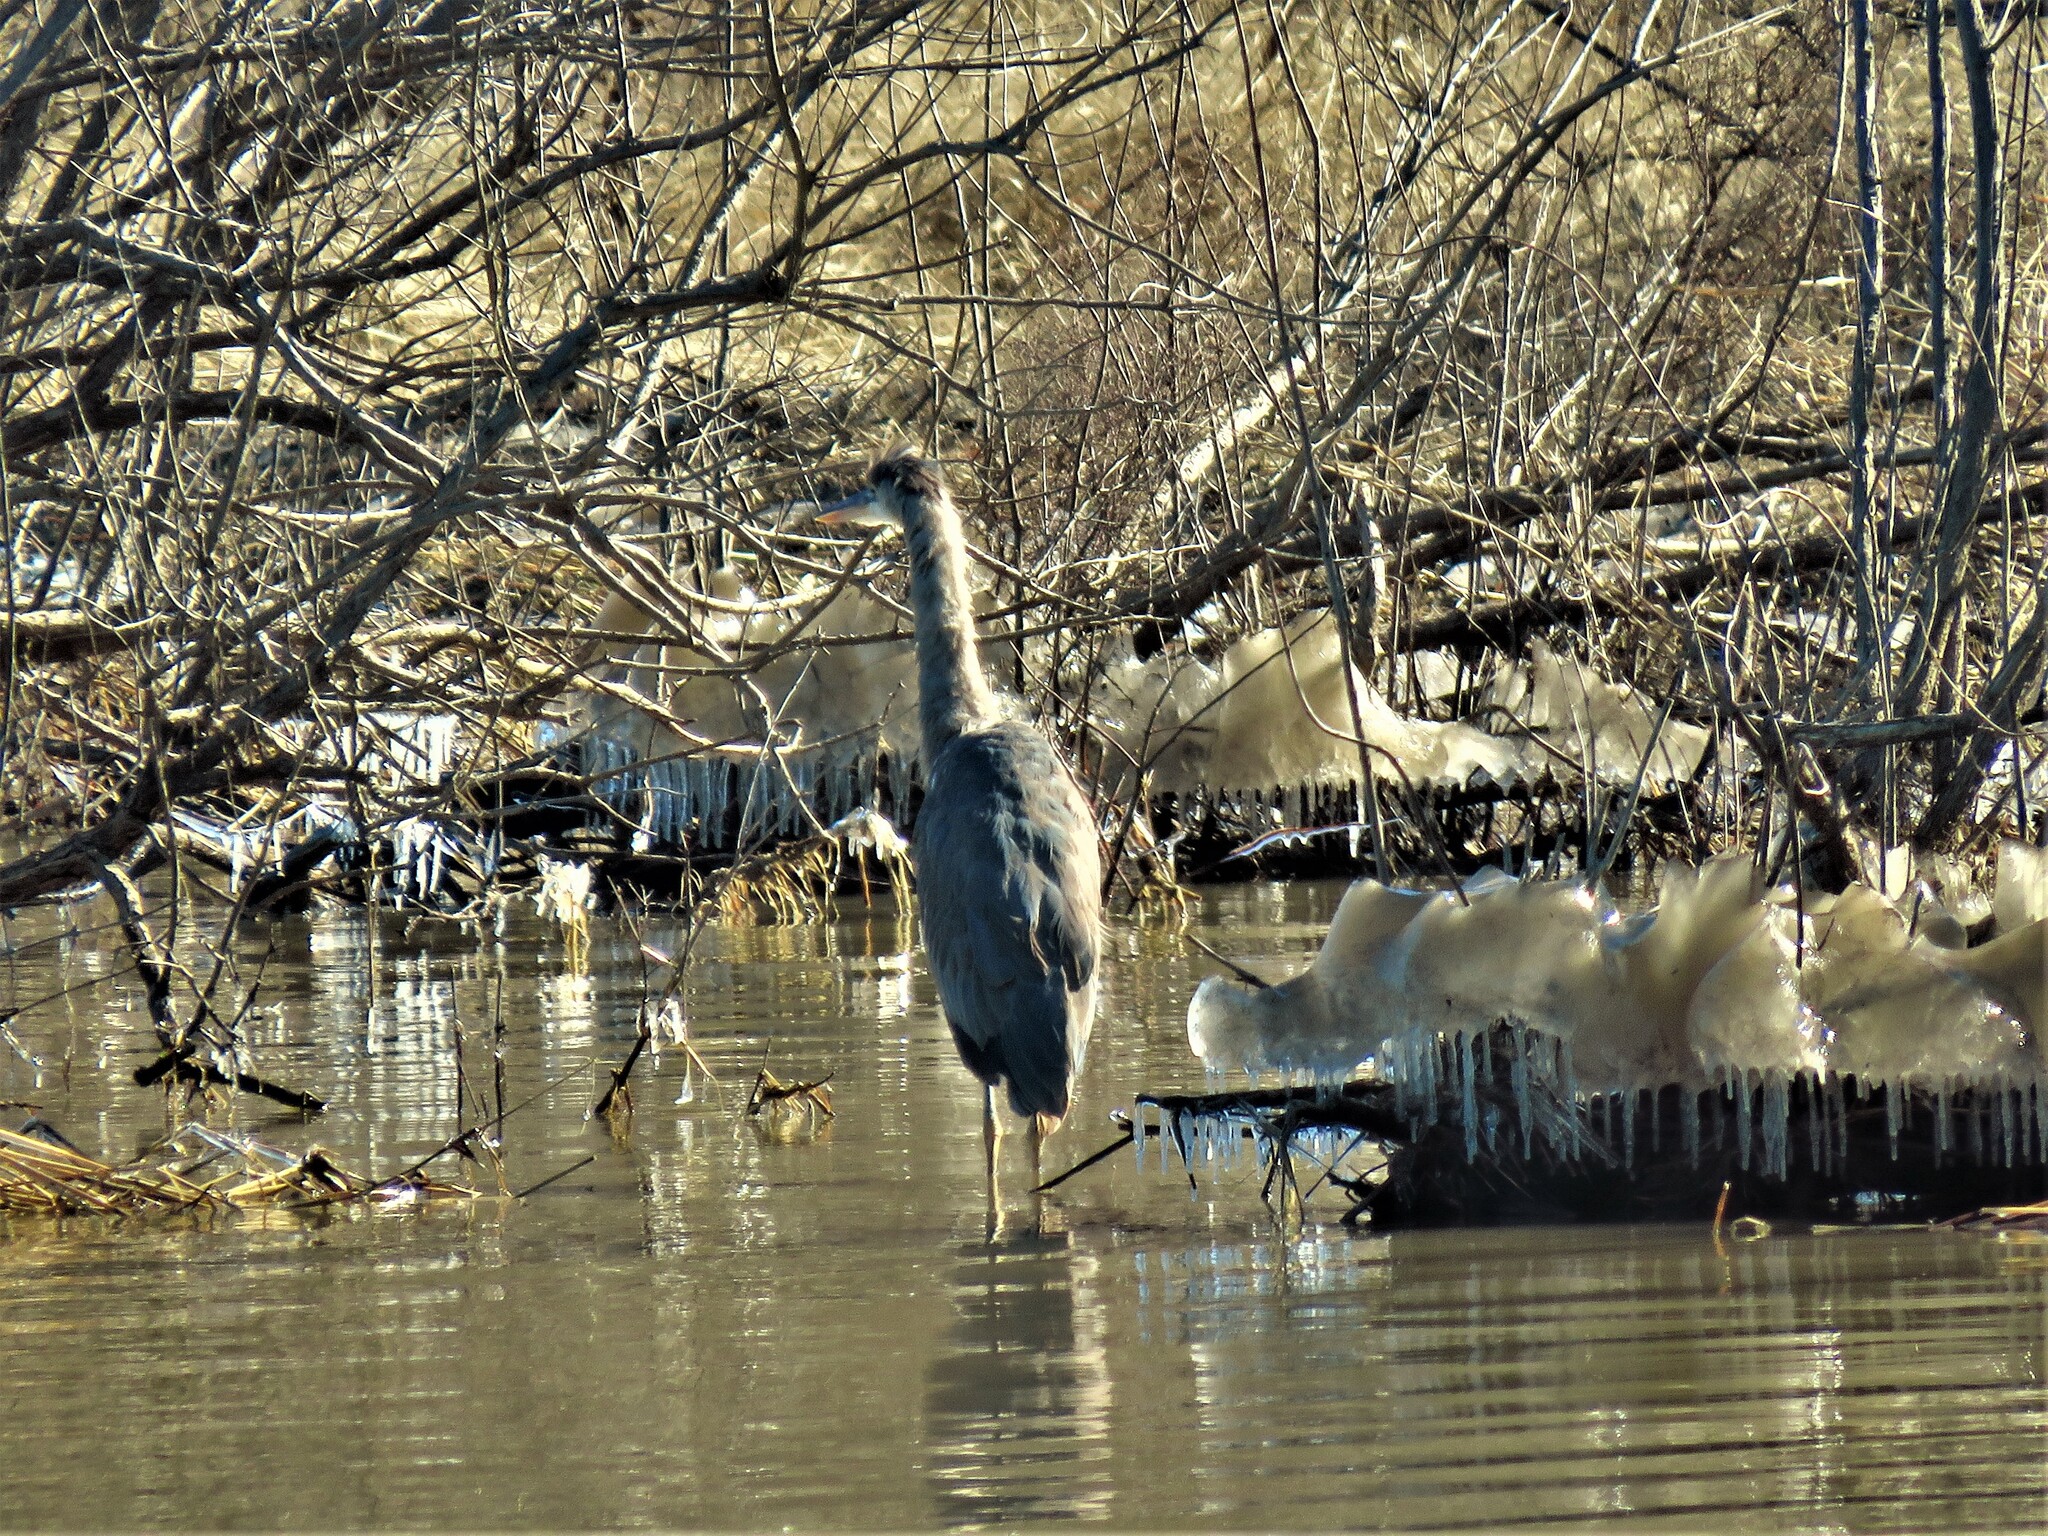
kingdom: Animalia
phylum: Chordata
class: Aves
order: Pelecaniformes
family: Ardeidae
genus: Ardea
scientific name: Ardea herodias
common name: Great blue heron
